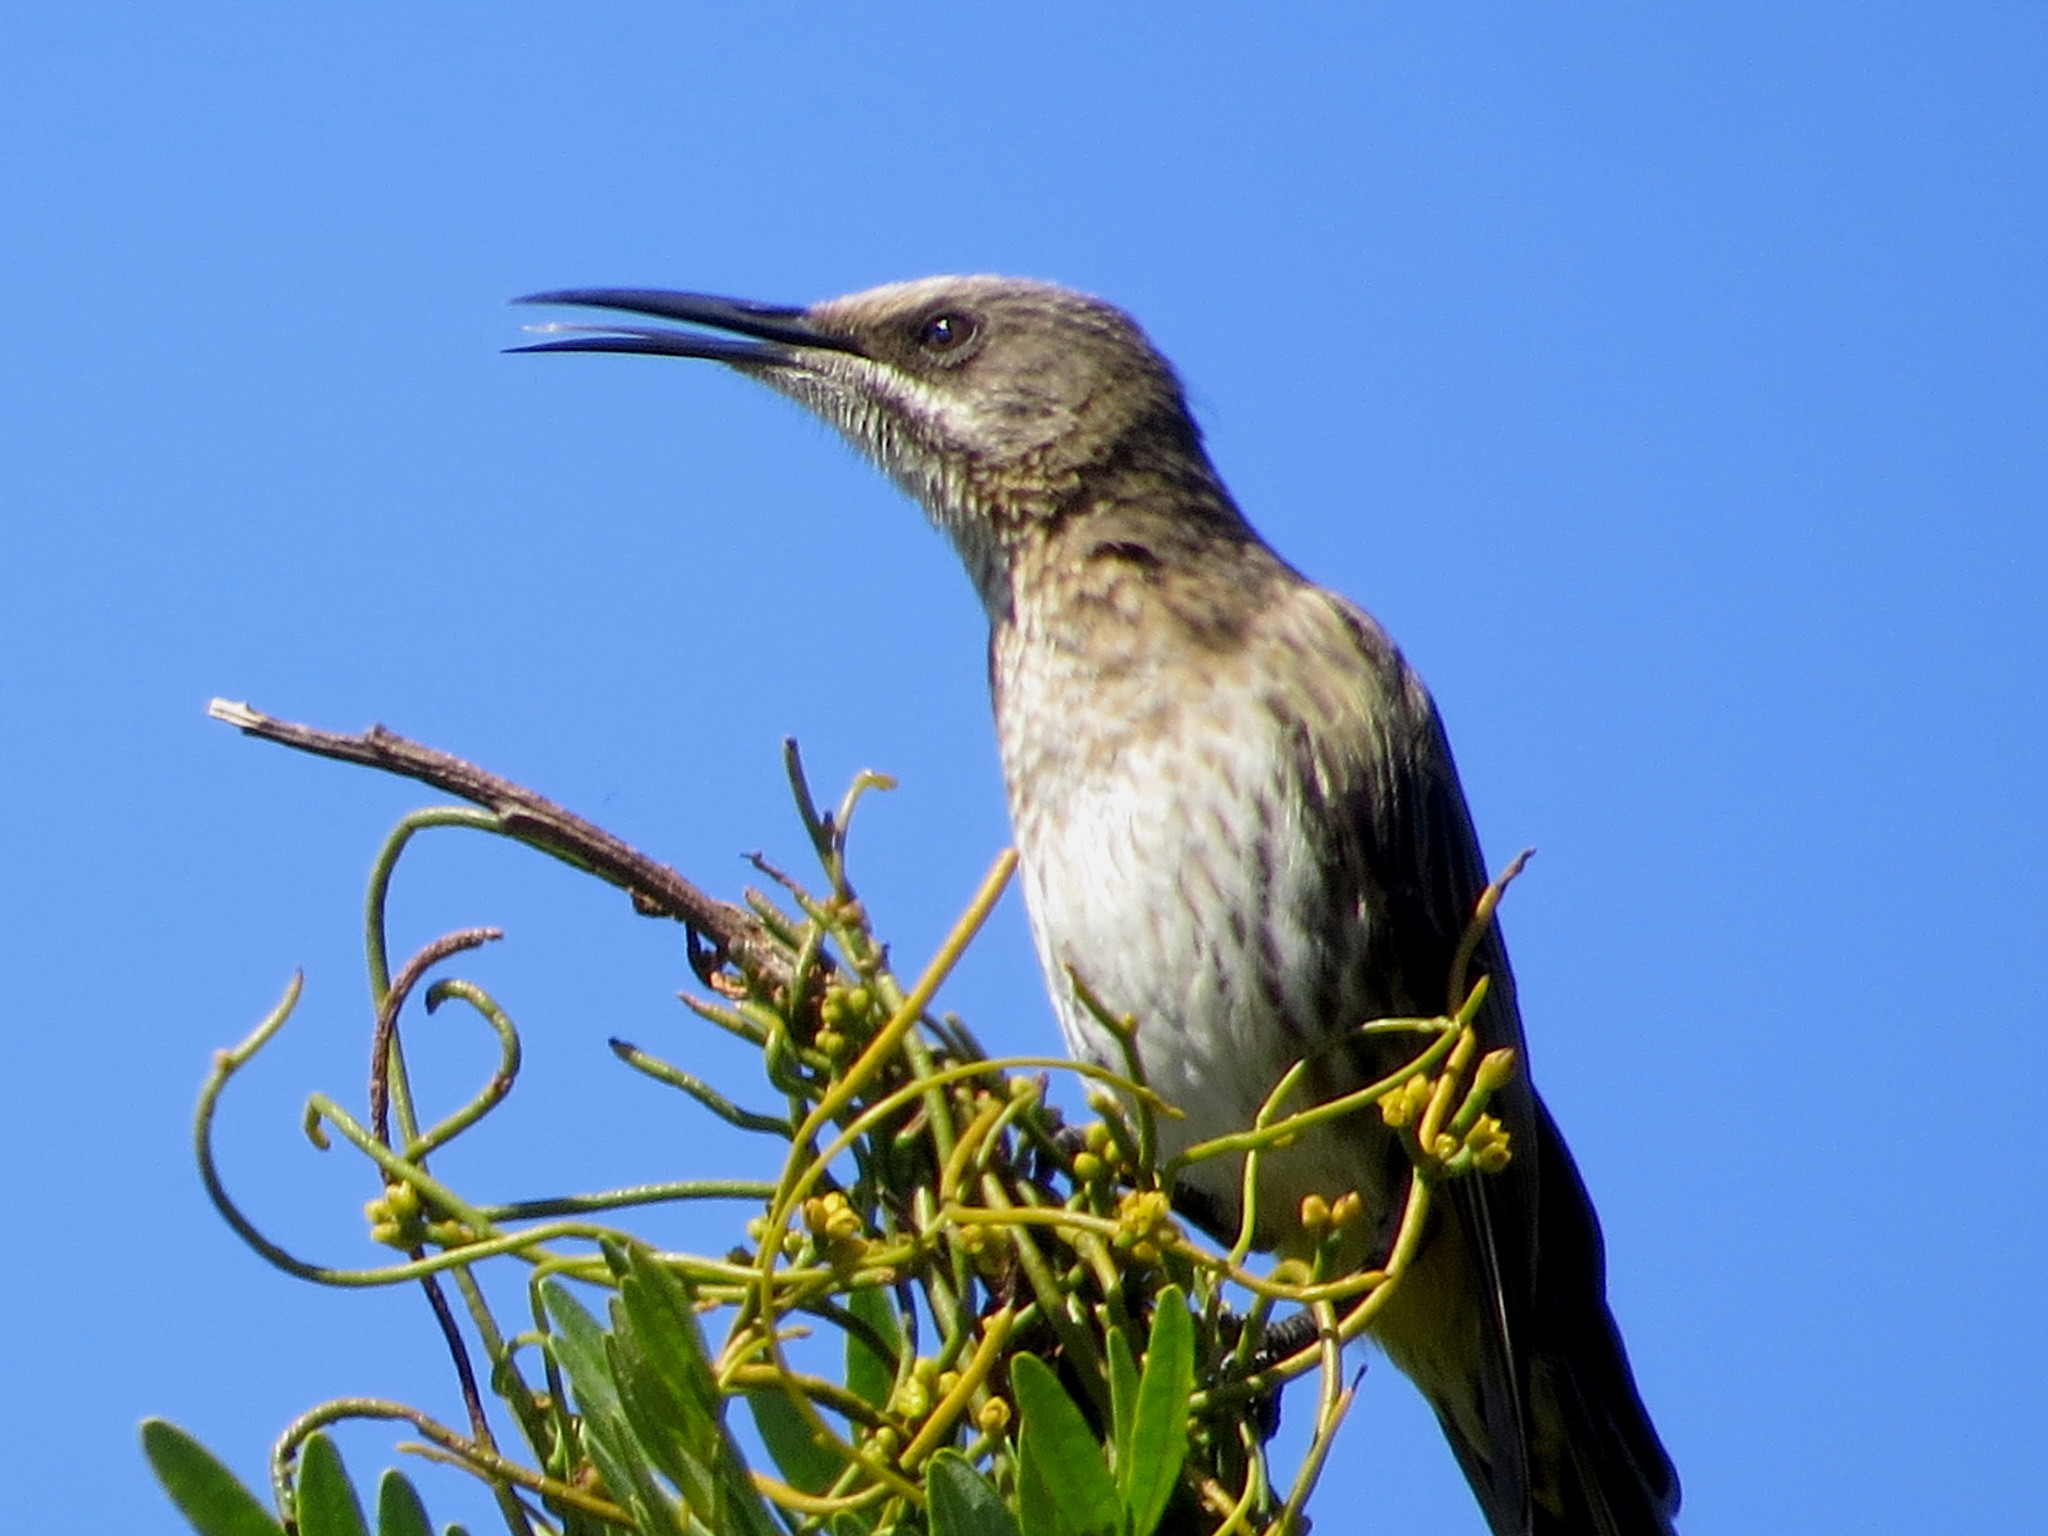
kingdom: Animalia
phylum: Chordata
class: Aves
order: Passeriformes
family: Promeropidae
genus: Promerops
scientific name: Promerops cafer
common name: Cape sugarbird
